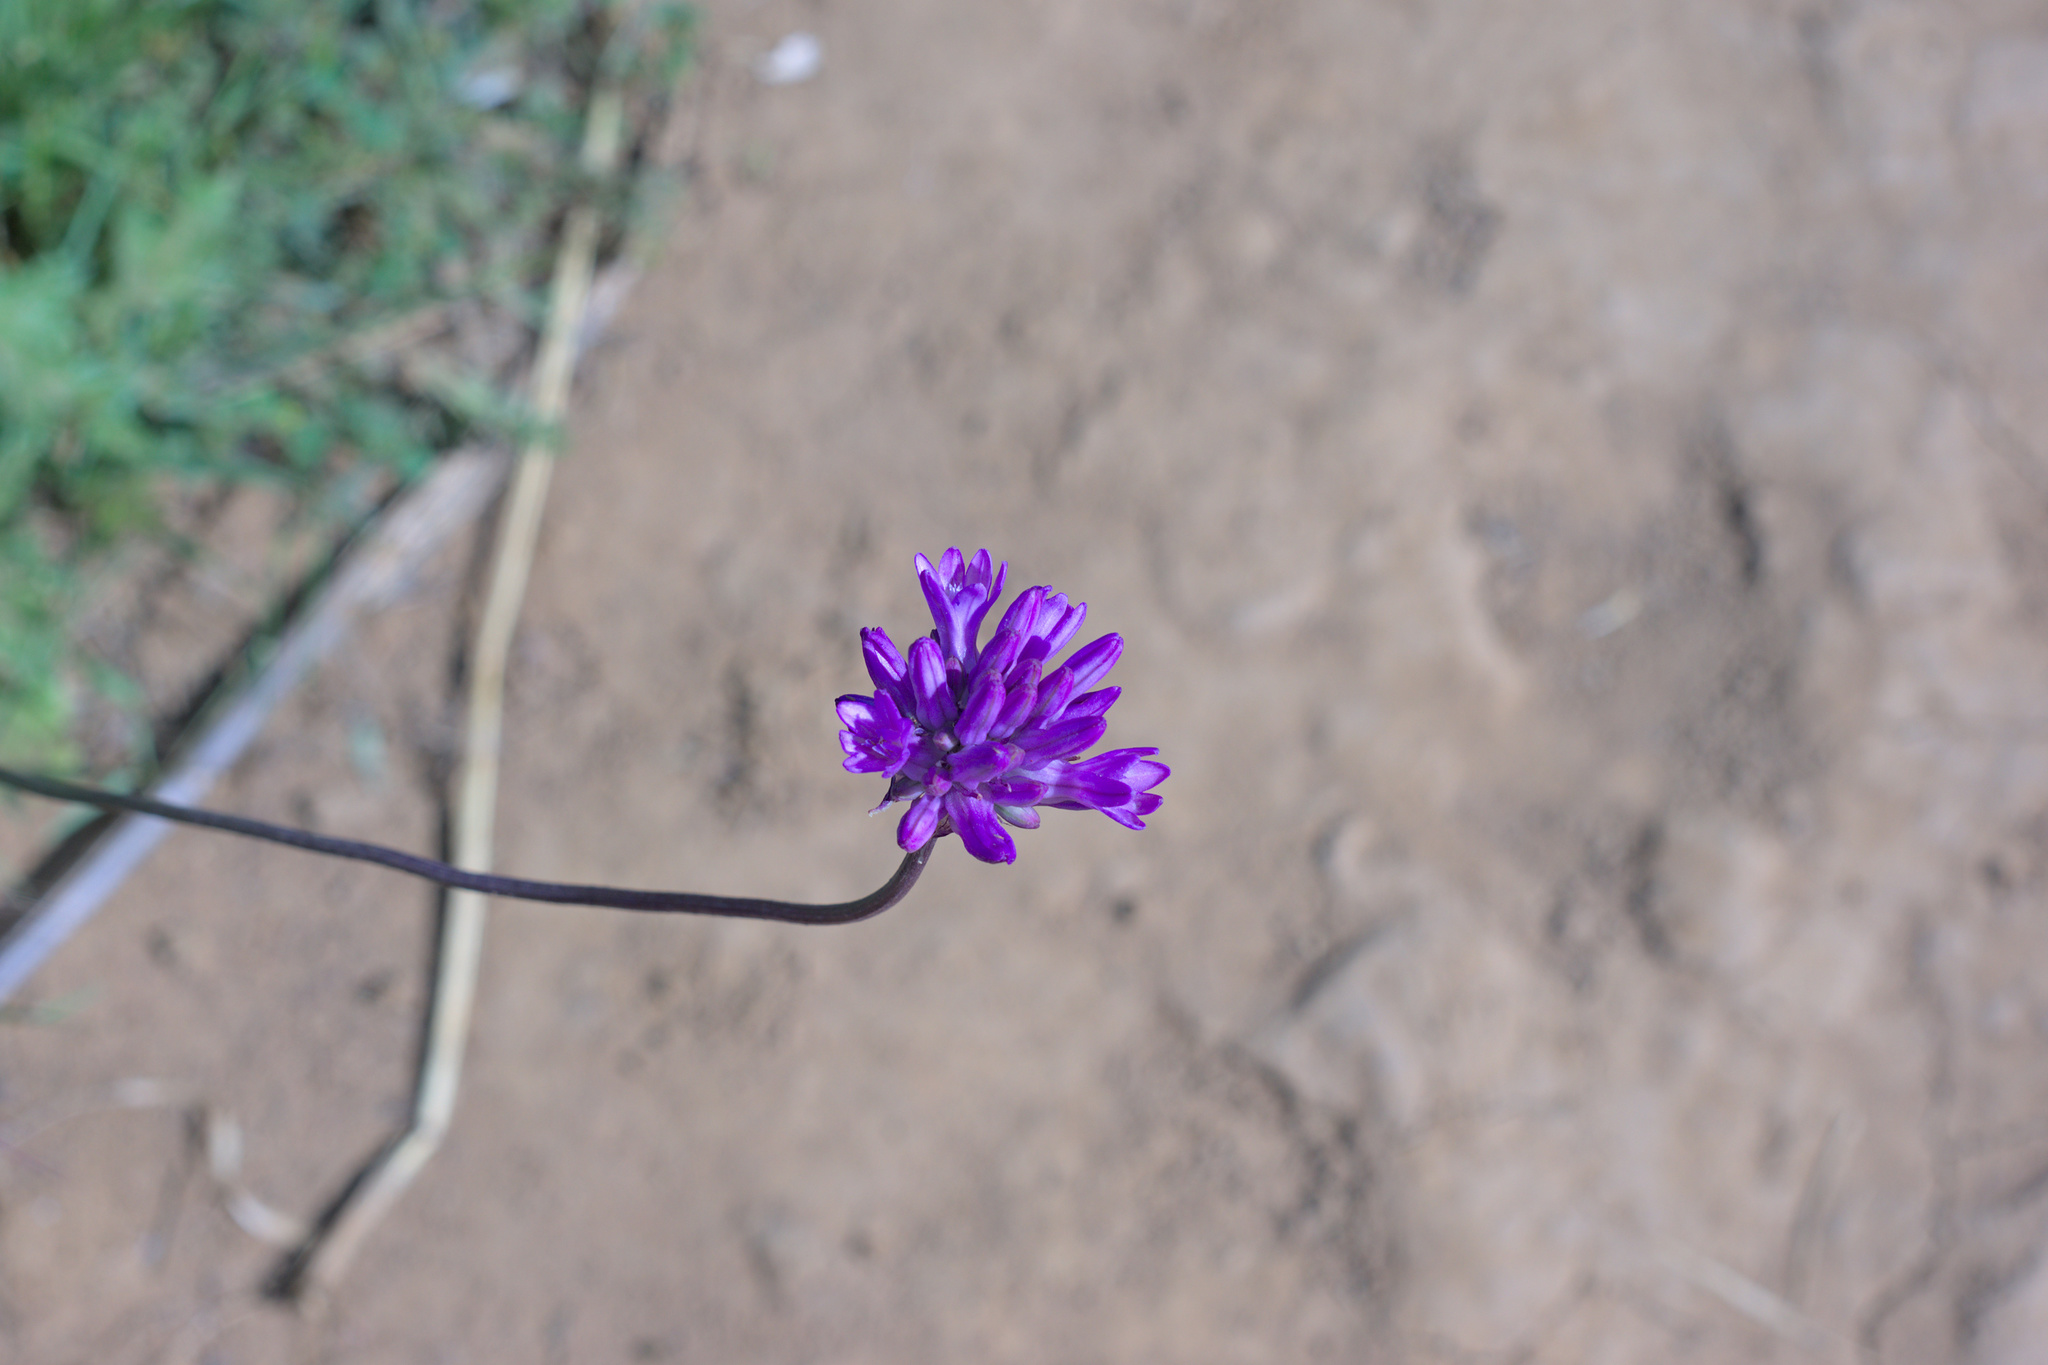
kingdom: Plantae
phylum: Tracheophyta
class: Liliopsida
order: Asparagales
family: Asparagaceae
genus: Dichelostemma
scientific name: Dichelostemma congestum
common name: Fork-tooth ookow
